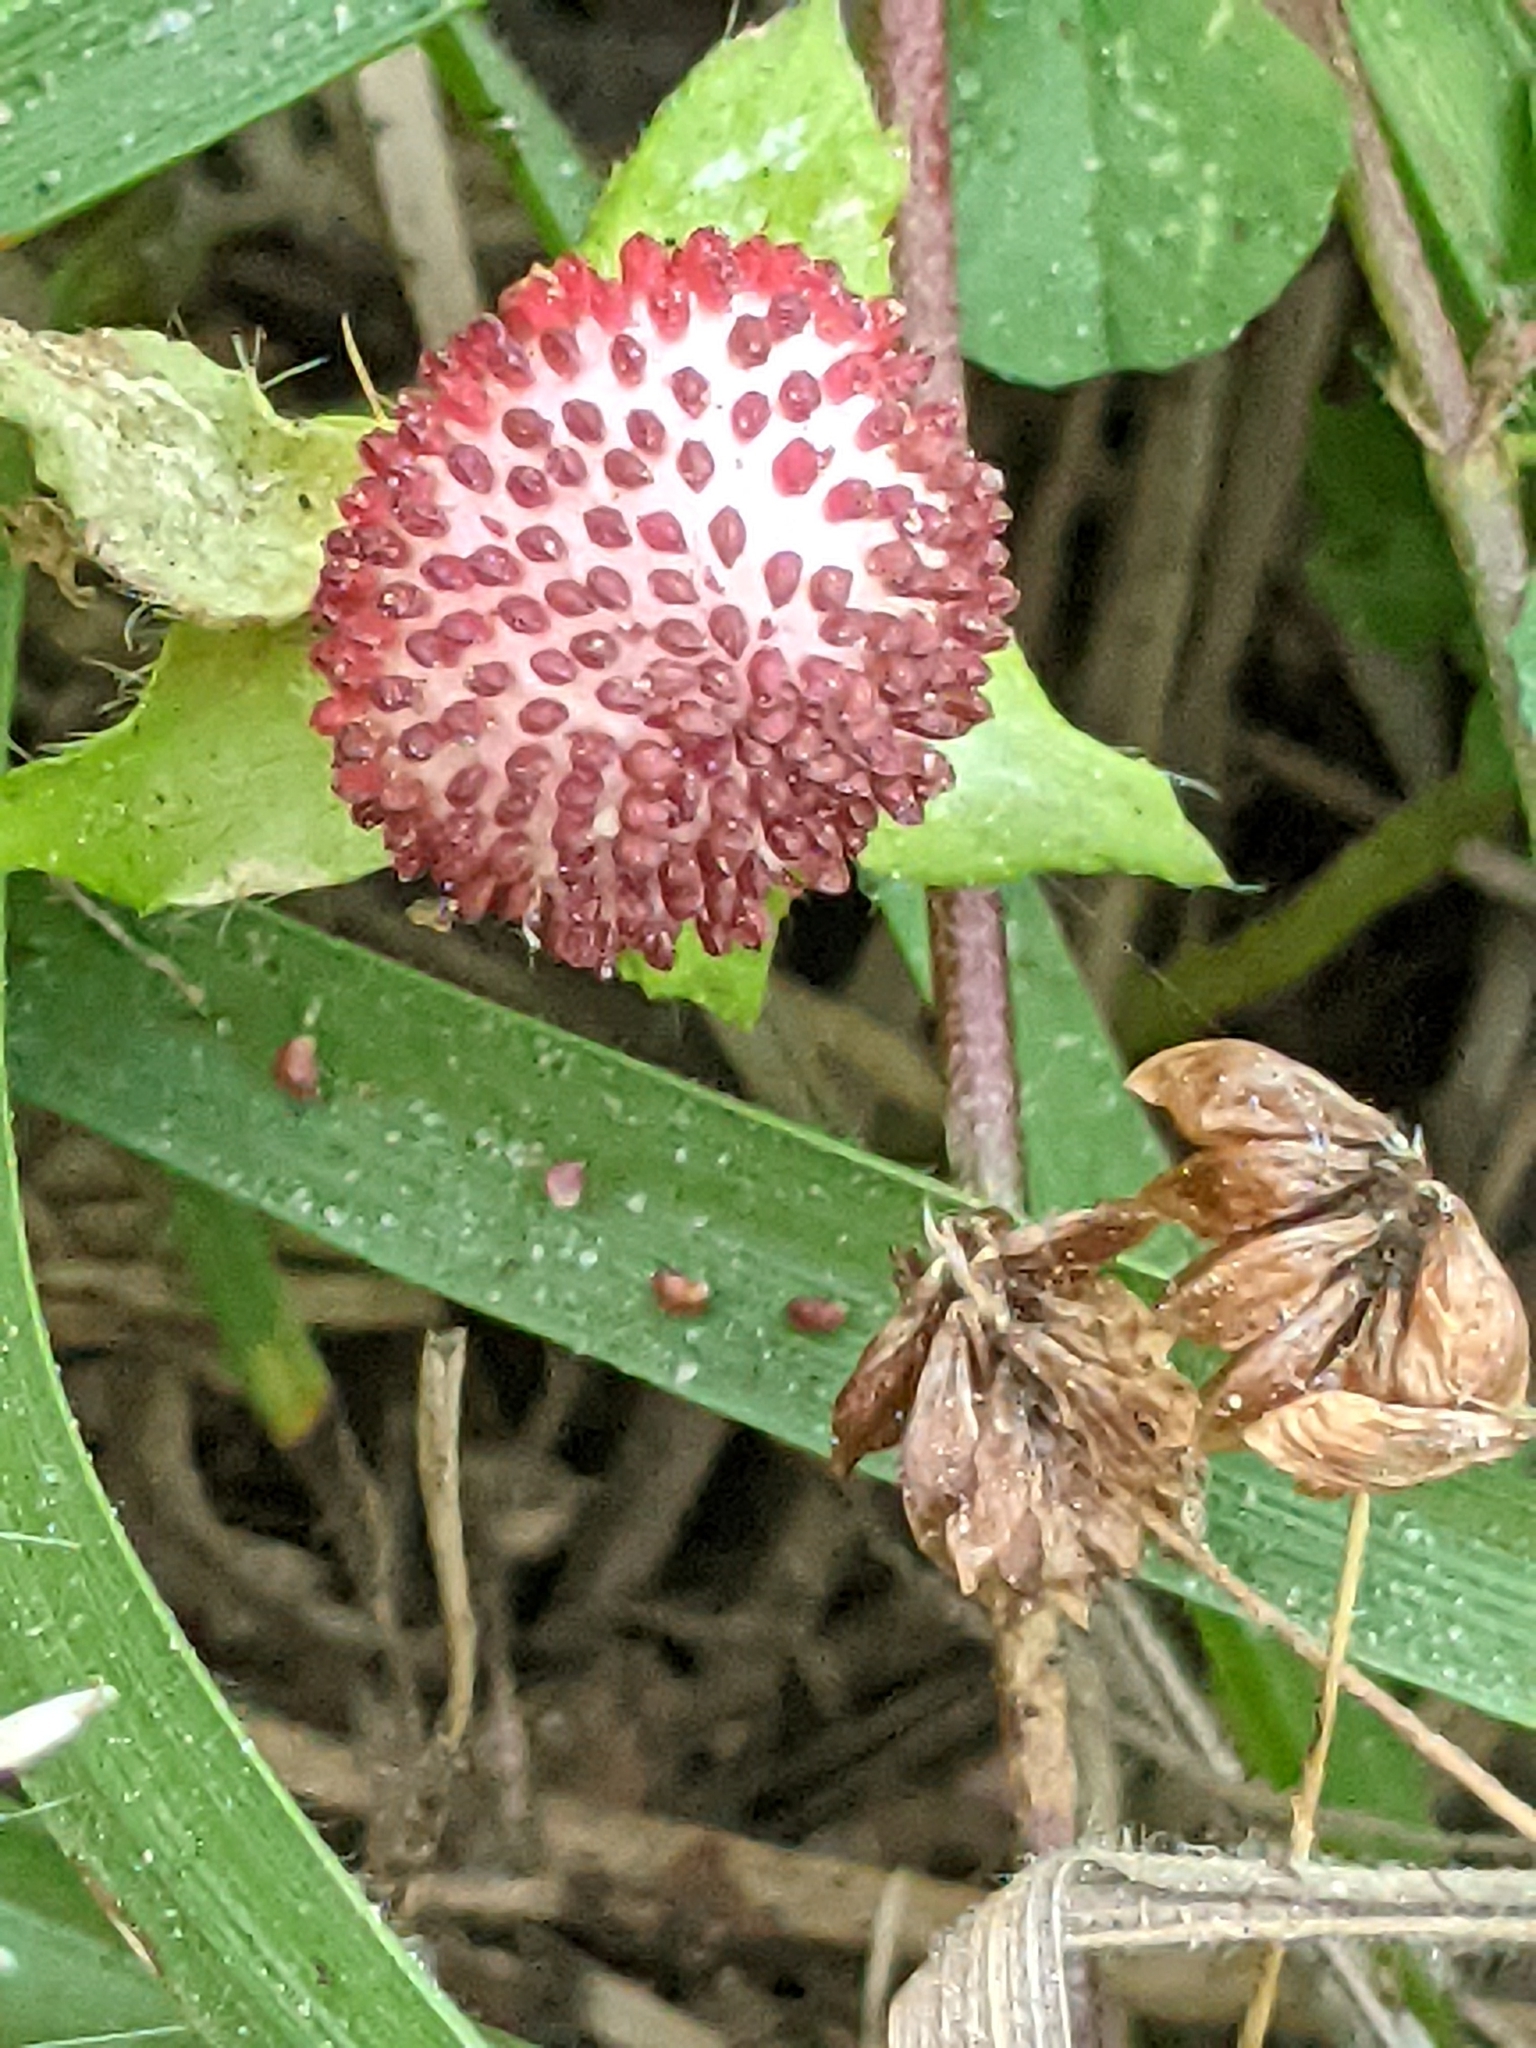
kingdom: Plantae
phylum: Tracheophyta
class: Magnoliopsida
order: Rosales
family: Rosaceae
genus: Potentilla
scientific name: Potentilla indica
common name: Yellow-flowered strawberry
